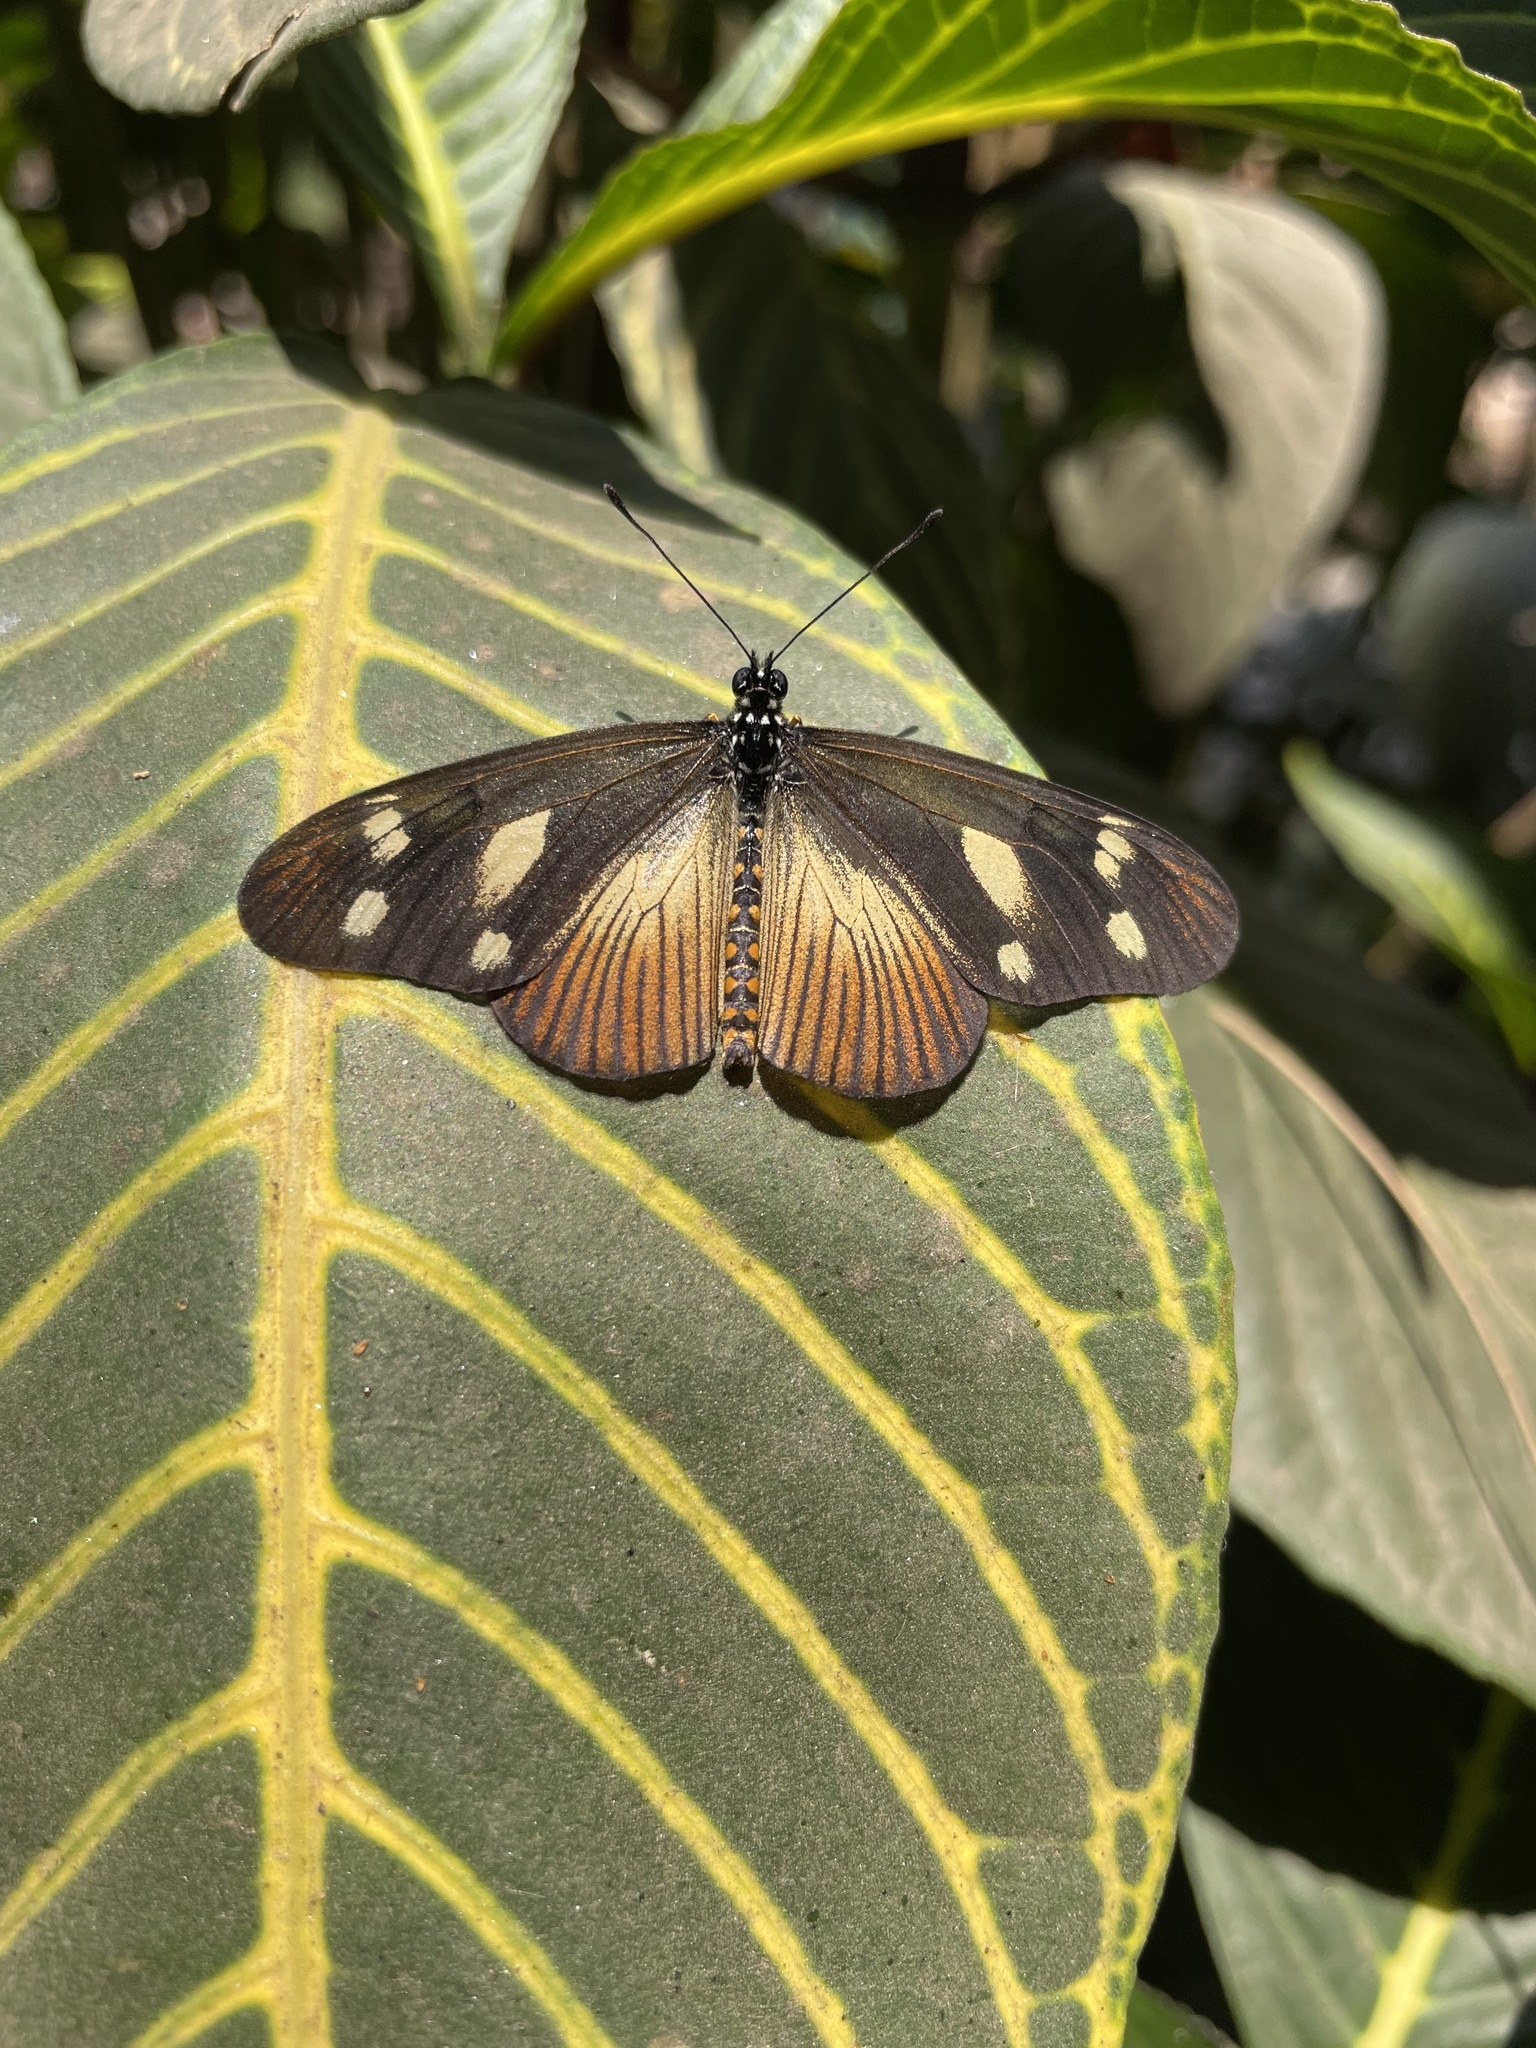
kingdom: Animalia
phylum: Arthropoda
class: Insecta
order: Lepidoptera
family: Nymphalidae
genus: Acraea
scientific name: Acraea Telchinia lycoa
